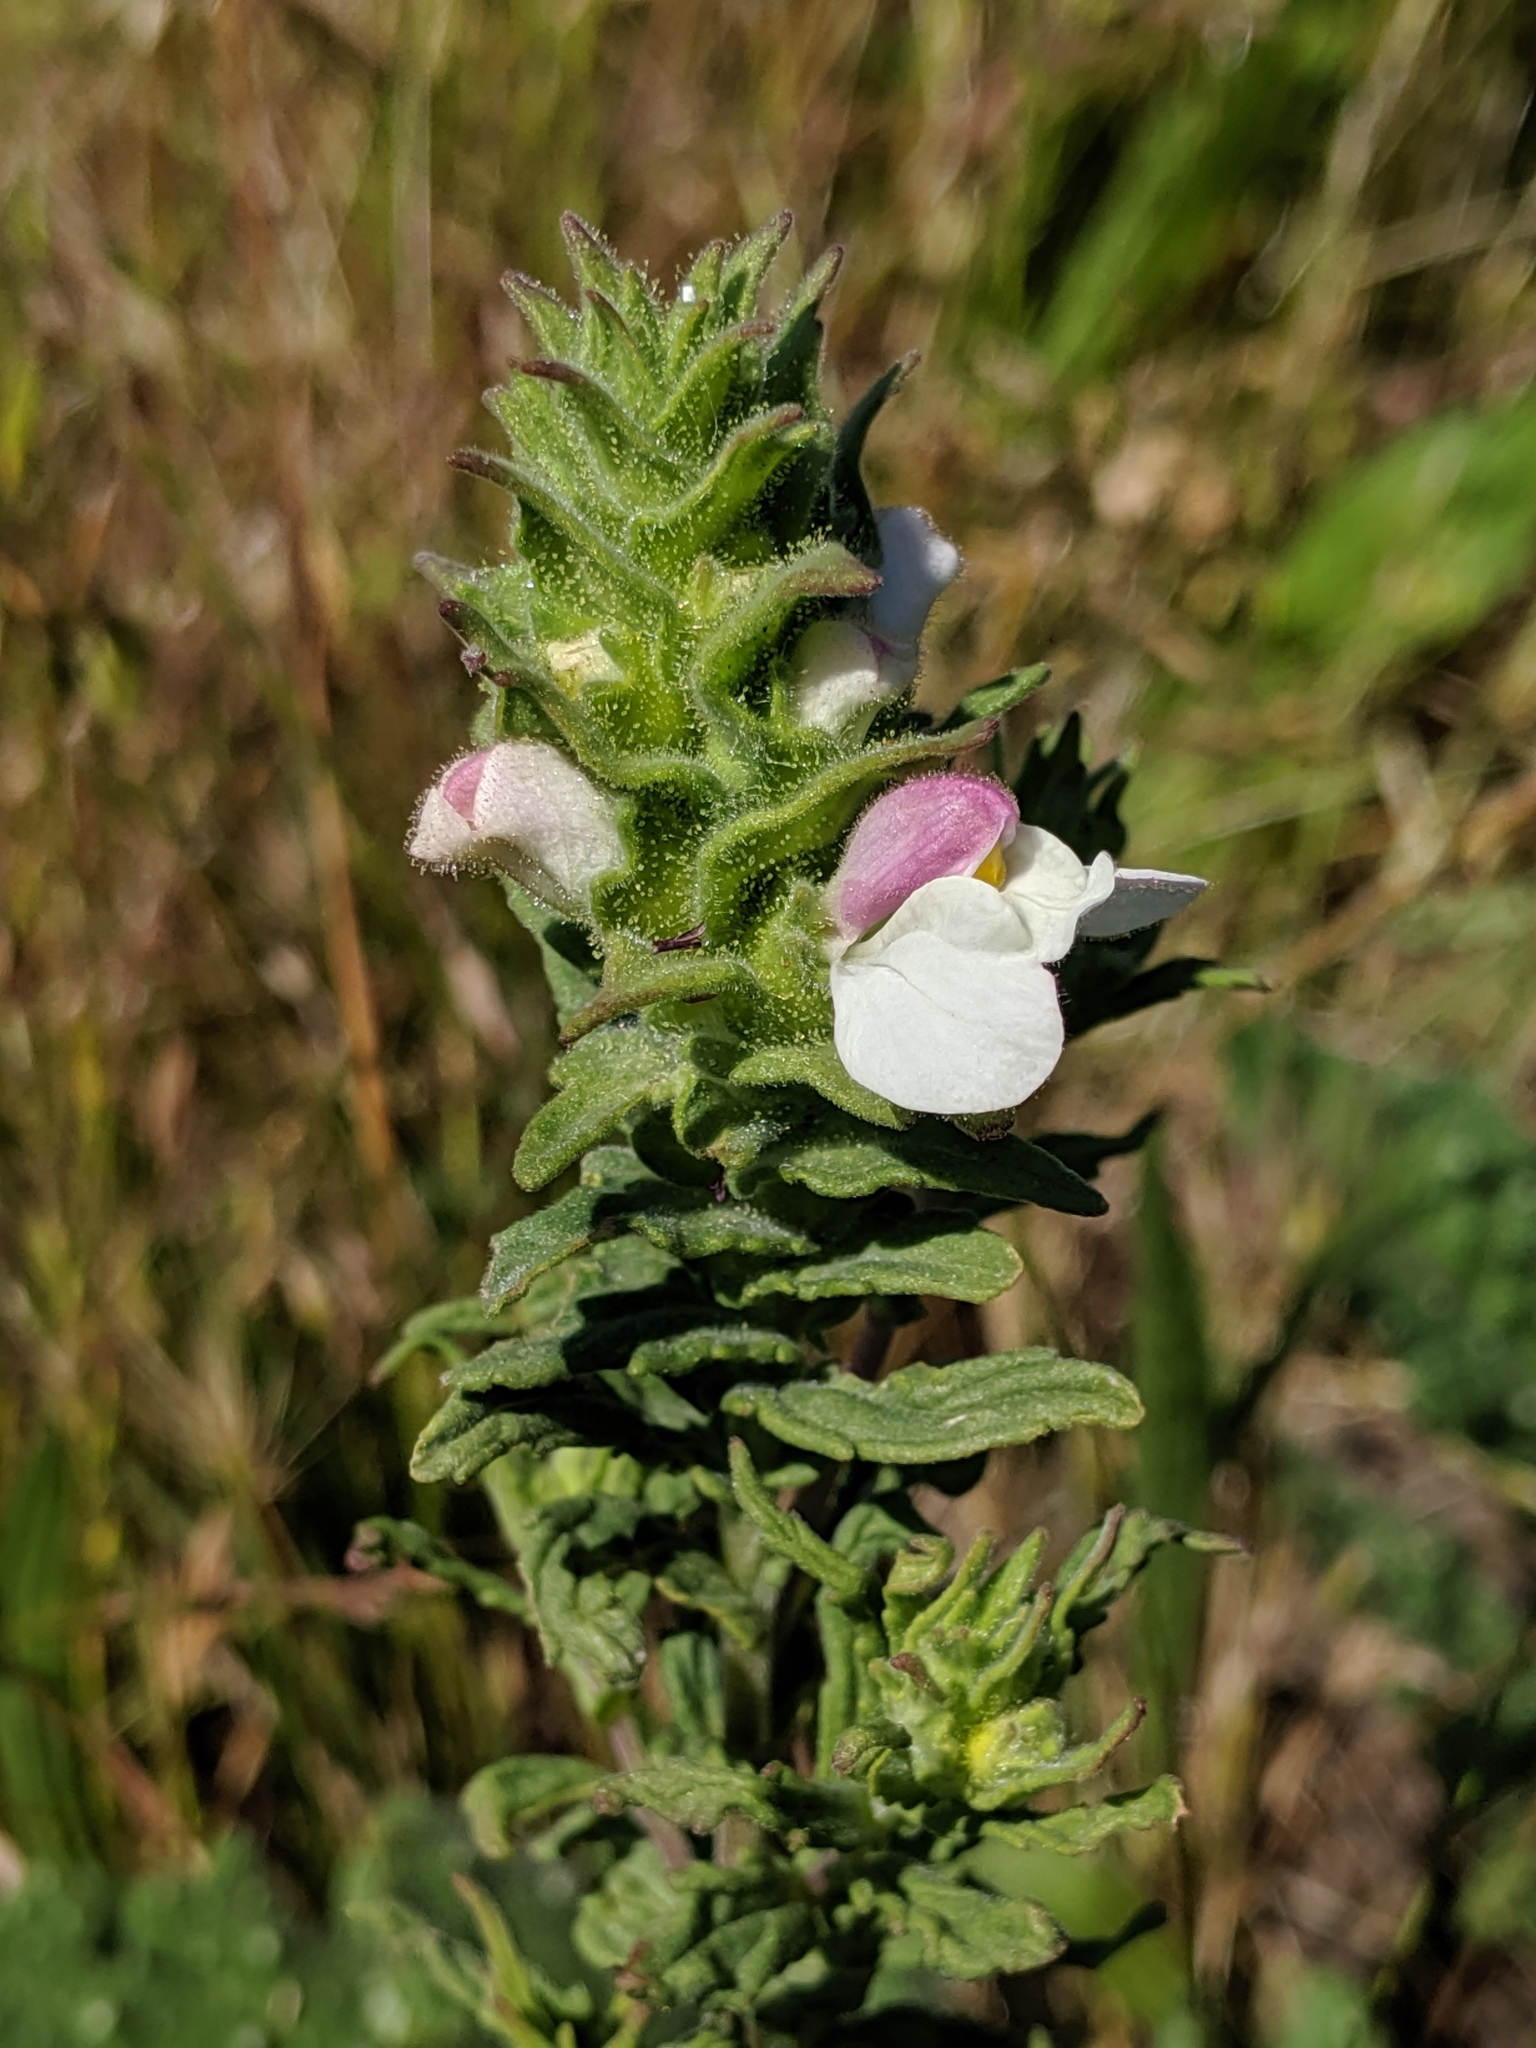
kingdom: Plantae
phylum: Tracheophyta
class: Magnoliopsida
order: Lamiales
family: Orobanchaceae
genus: Bellardia
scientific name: Bellardia trixago
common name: Mediterranean lineseed
